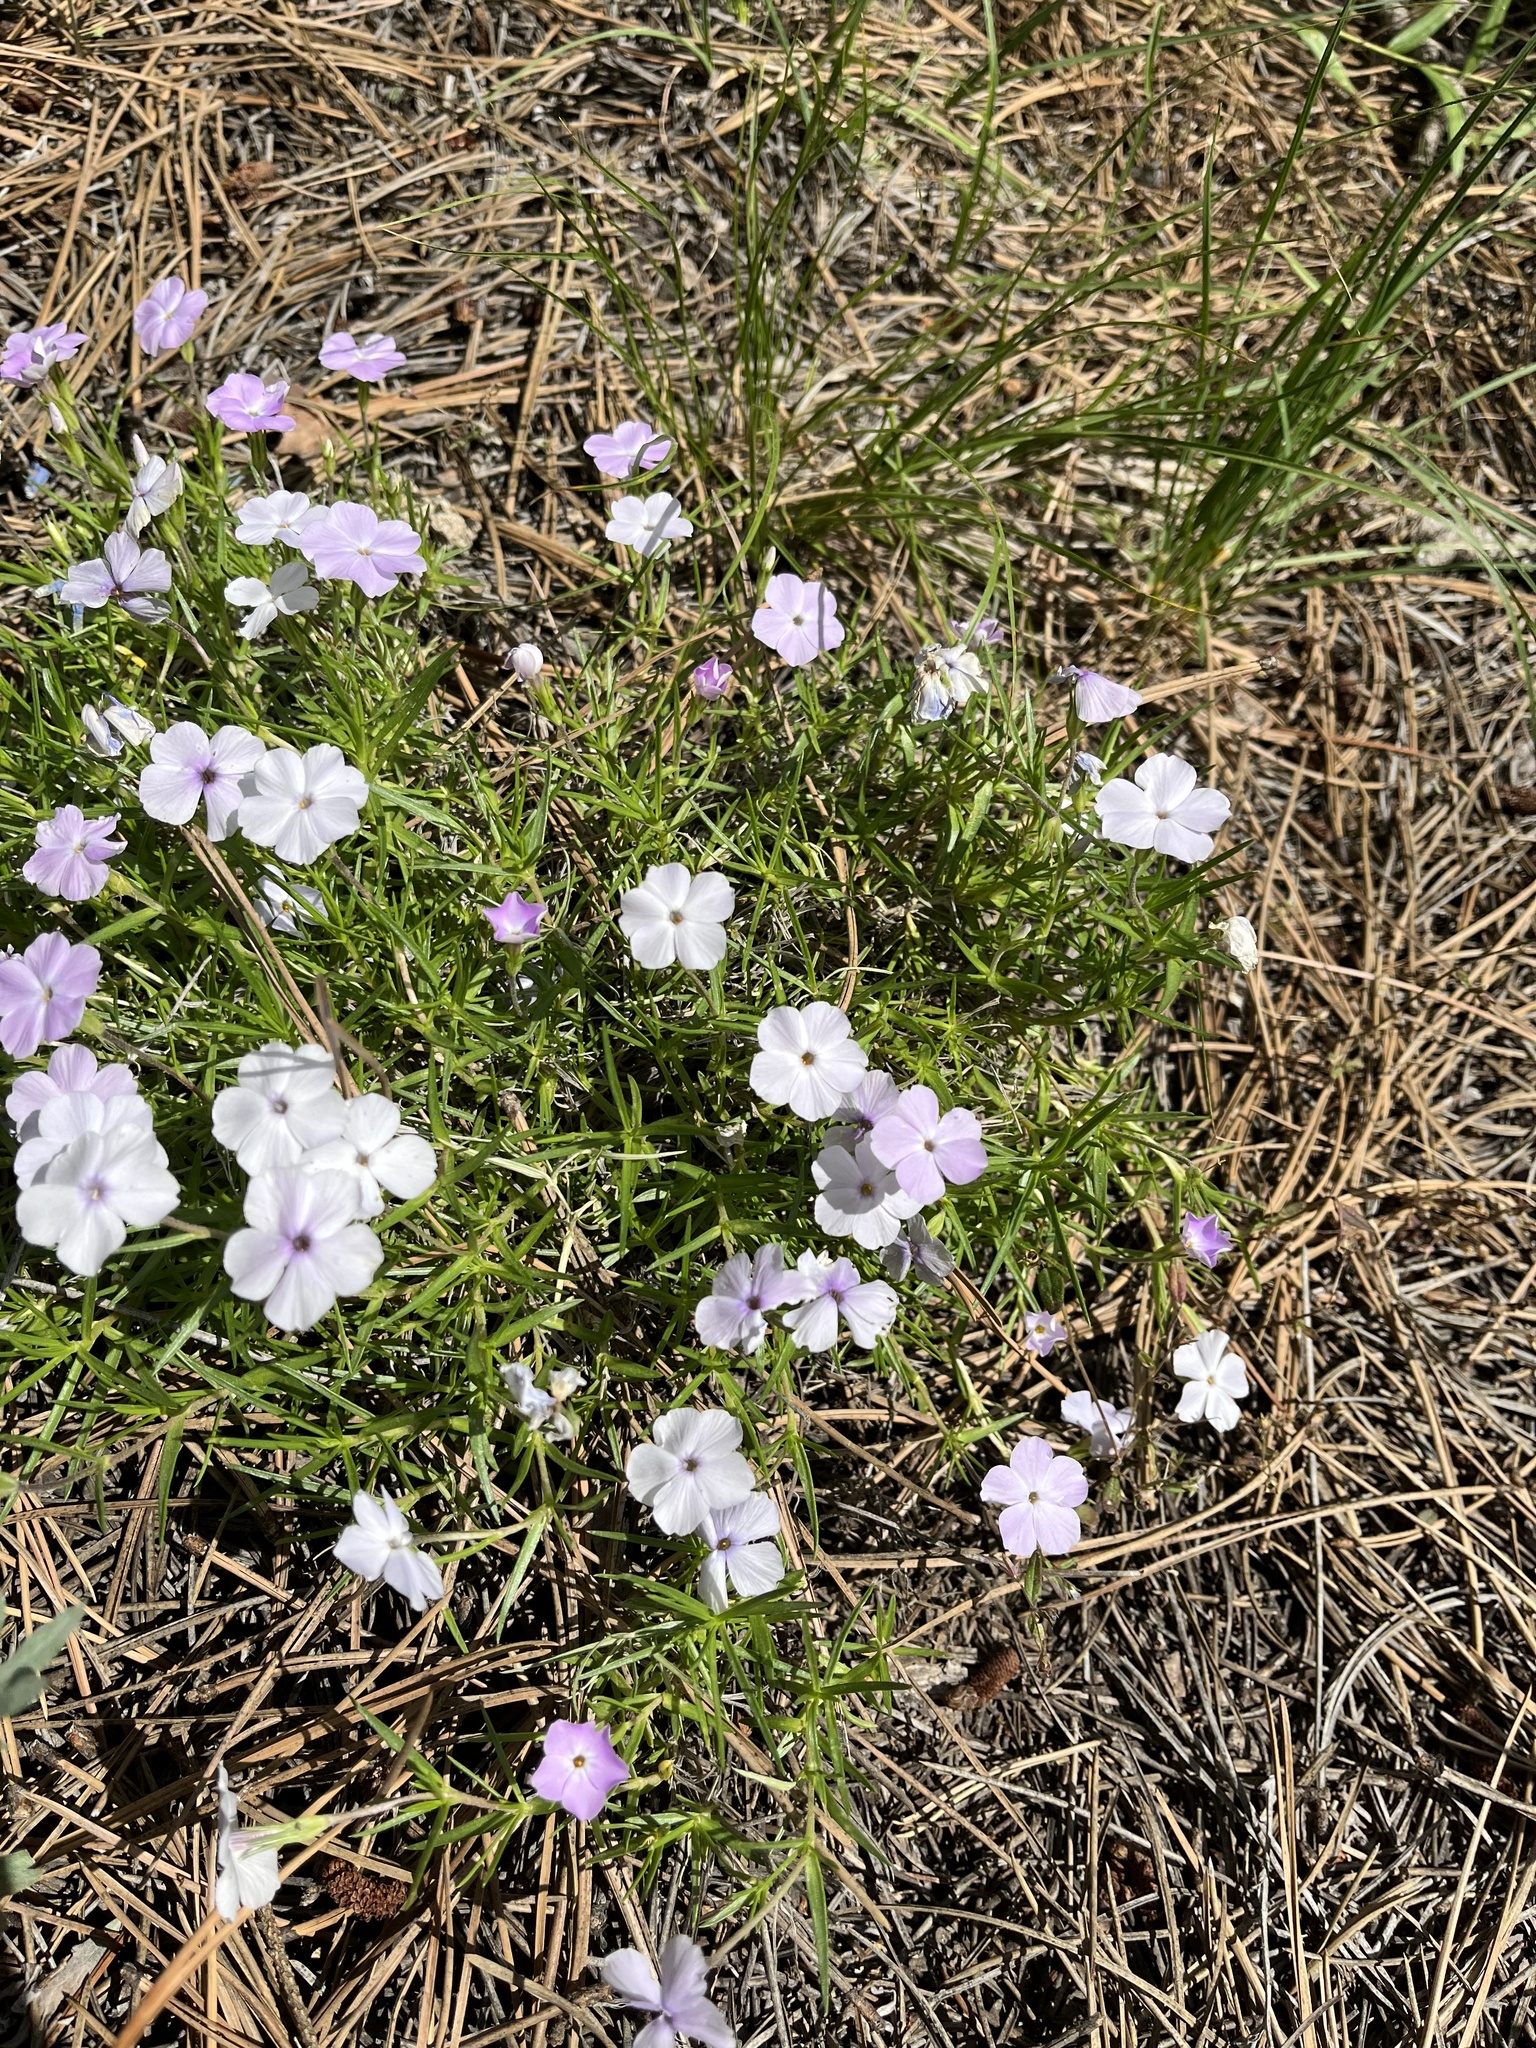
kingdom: Plantae
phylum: Tracheophyta
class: Magnoliopsida
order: Ericales
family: Polemoniaceae
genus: Phlox
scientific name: Phlox multiflora
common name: Rocky mountain phlox
